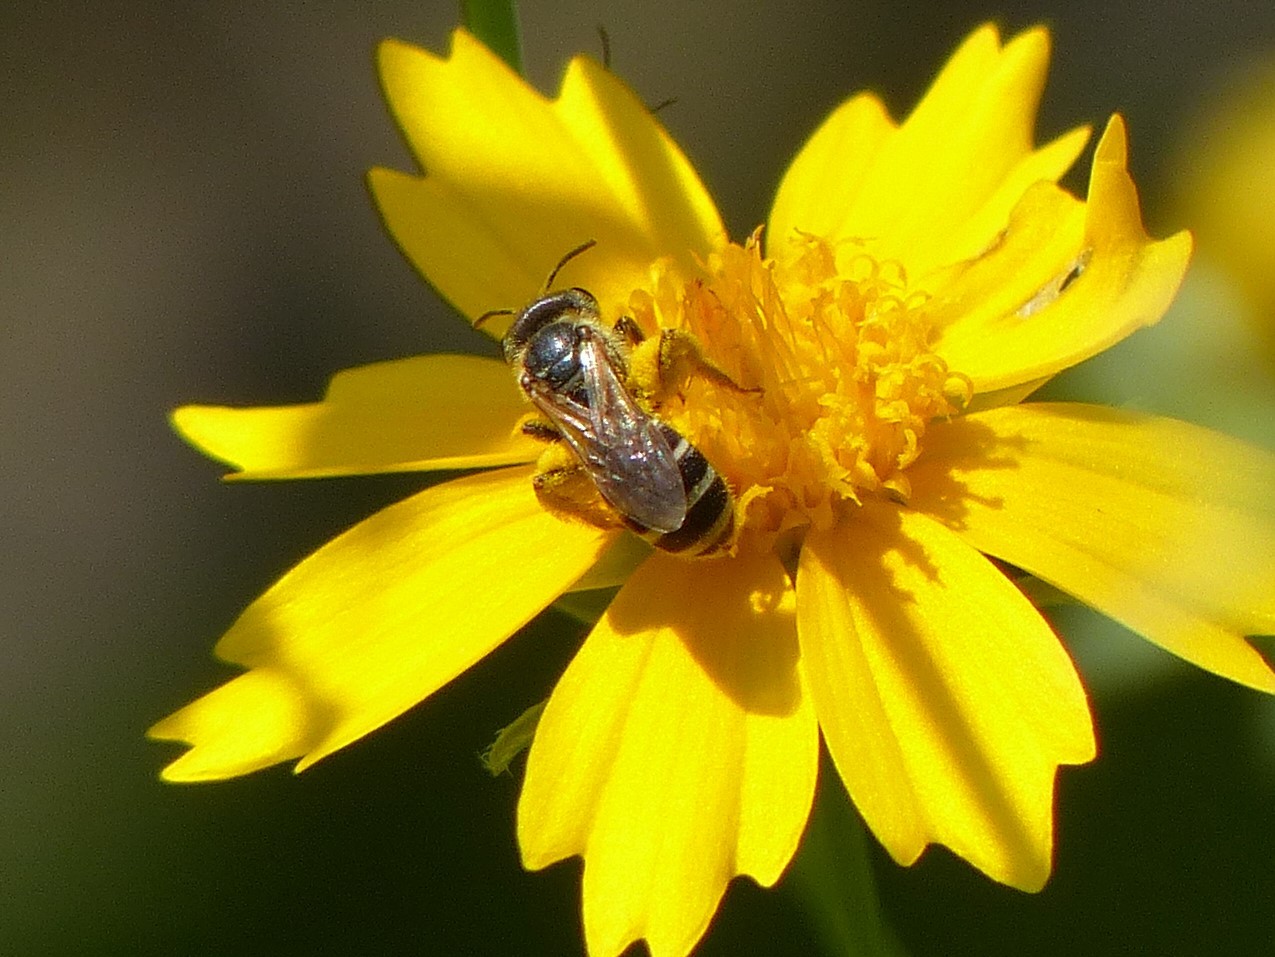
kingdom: Animalia
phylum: Arthropoda
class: Insecta
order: Hymenoptera
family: Halictidae
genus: Halictus
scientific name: Halictus ligatus
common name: Ligated furrow bee
